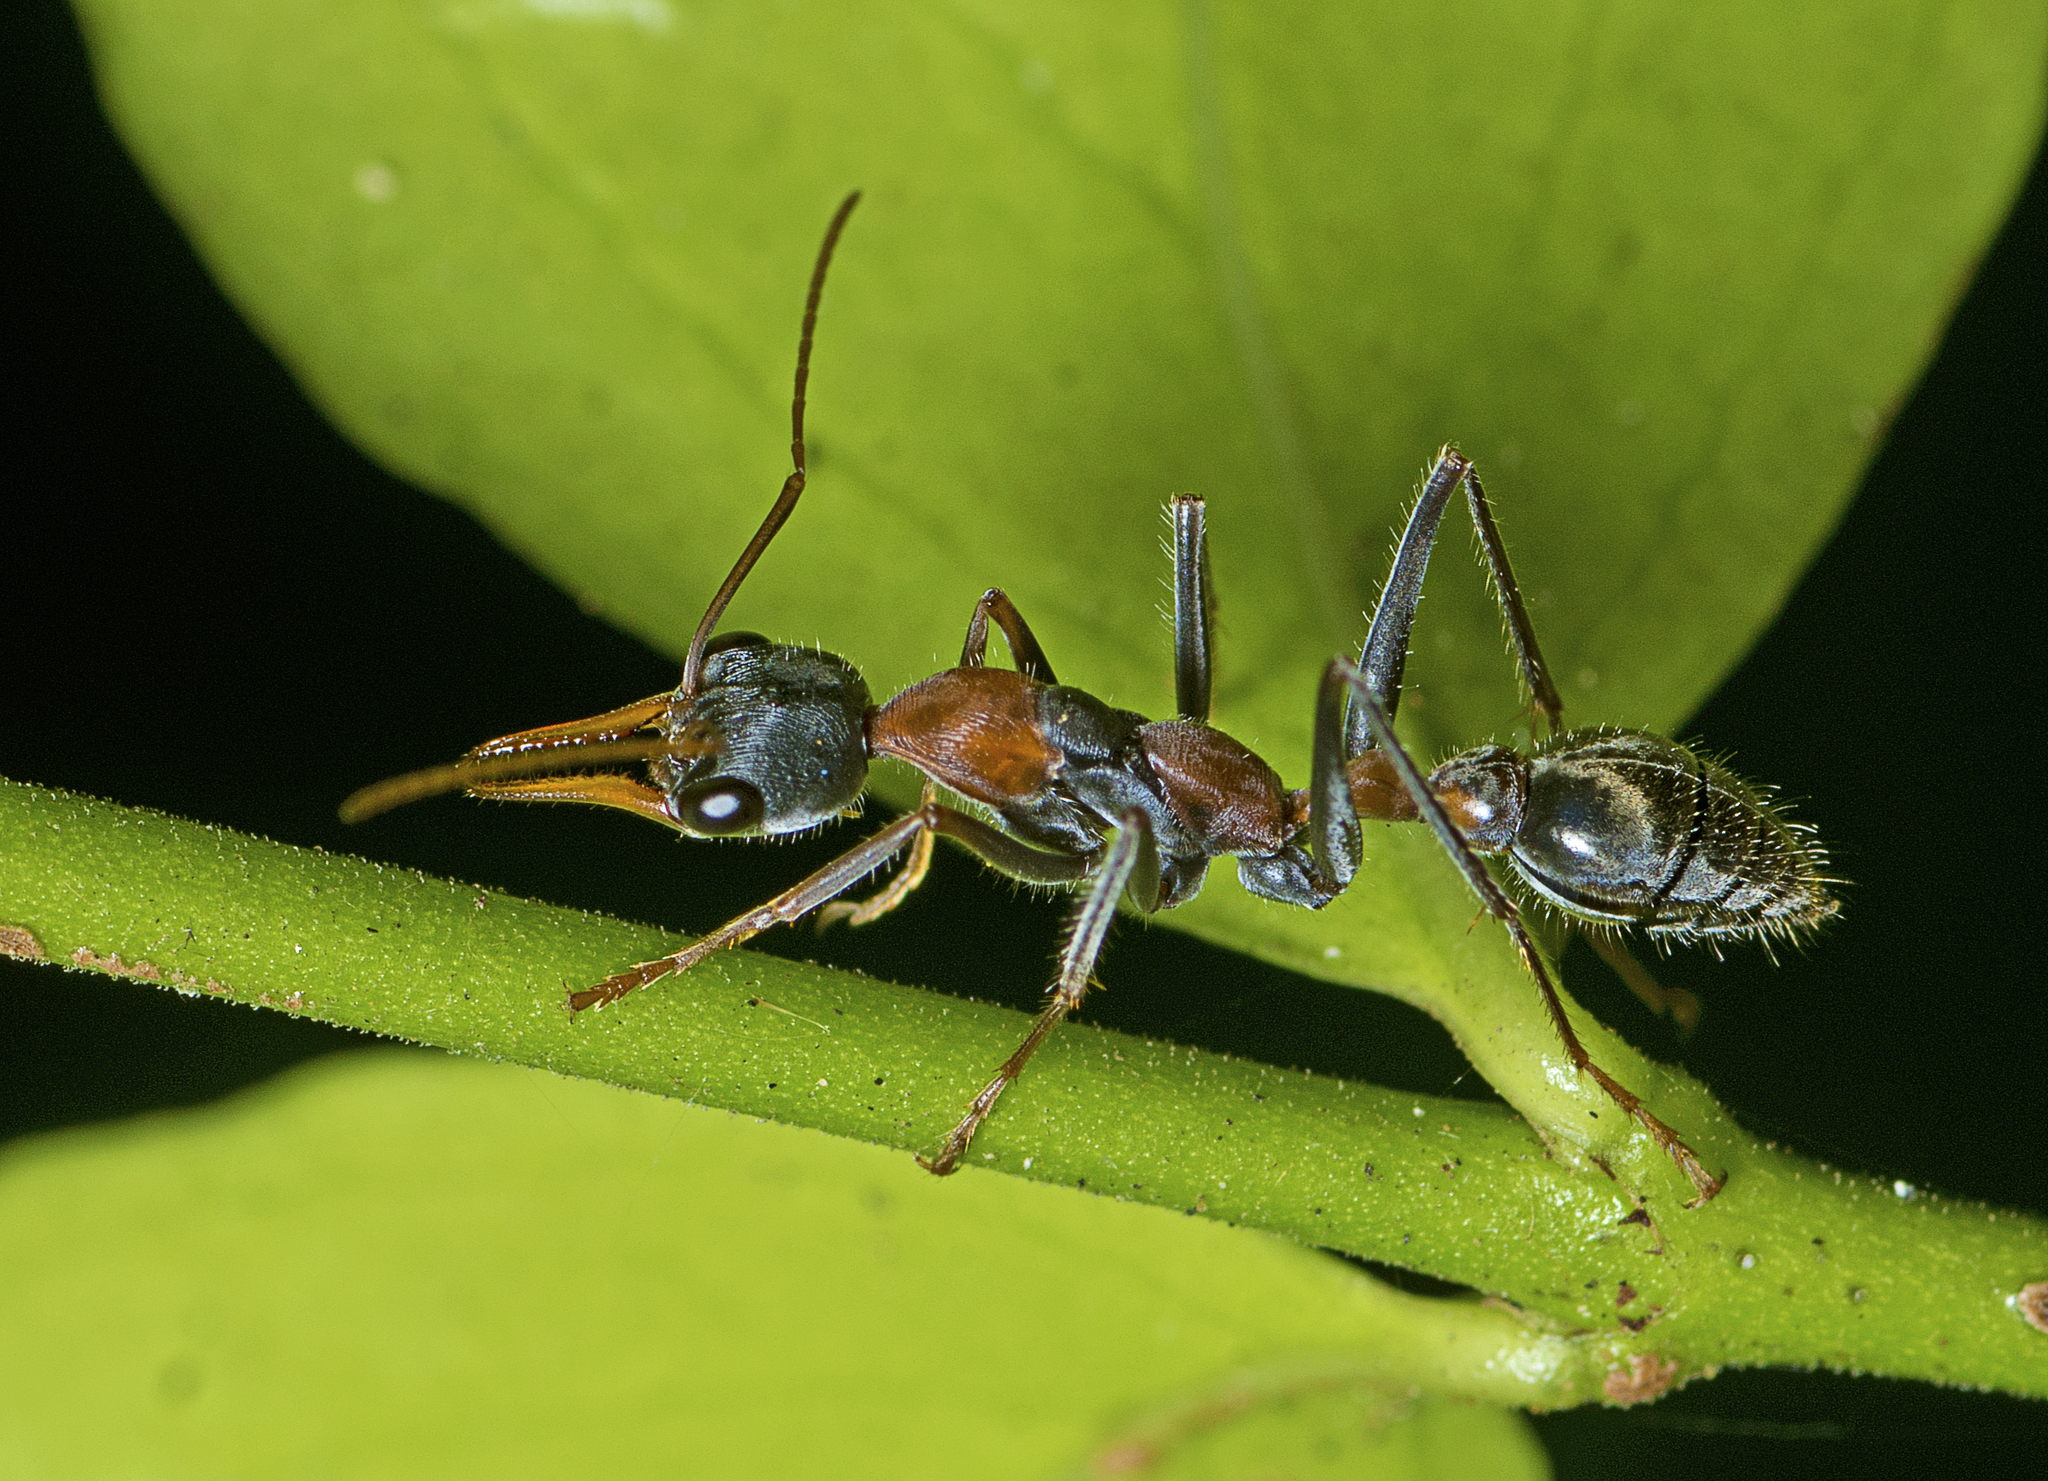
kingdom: Animalia
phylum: Arthropoda
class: Insecta
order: Hymenoptera
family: Formicidae
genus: Myrmecia
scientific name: Myrmecia nigrocincta
